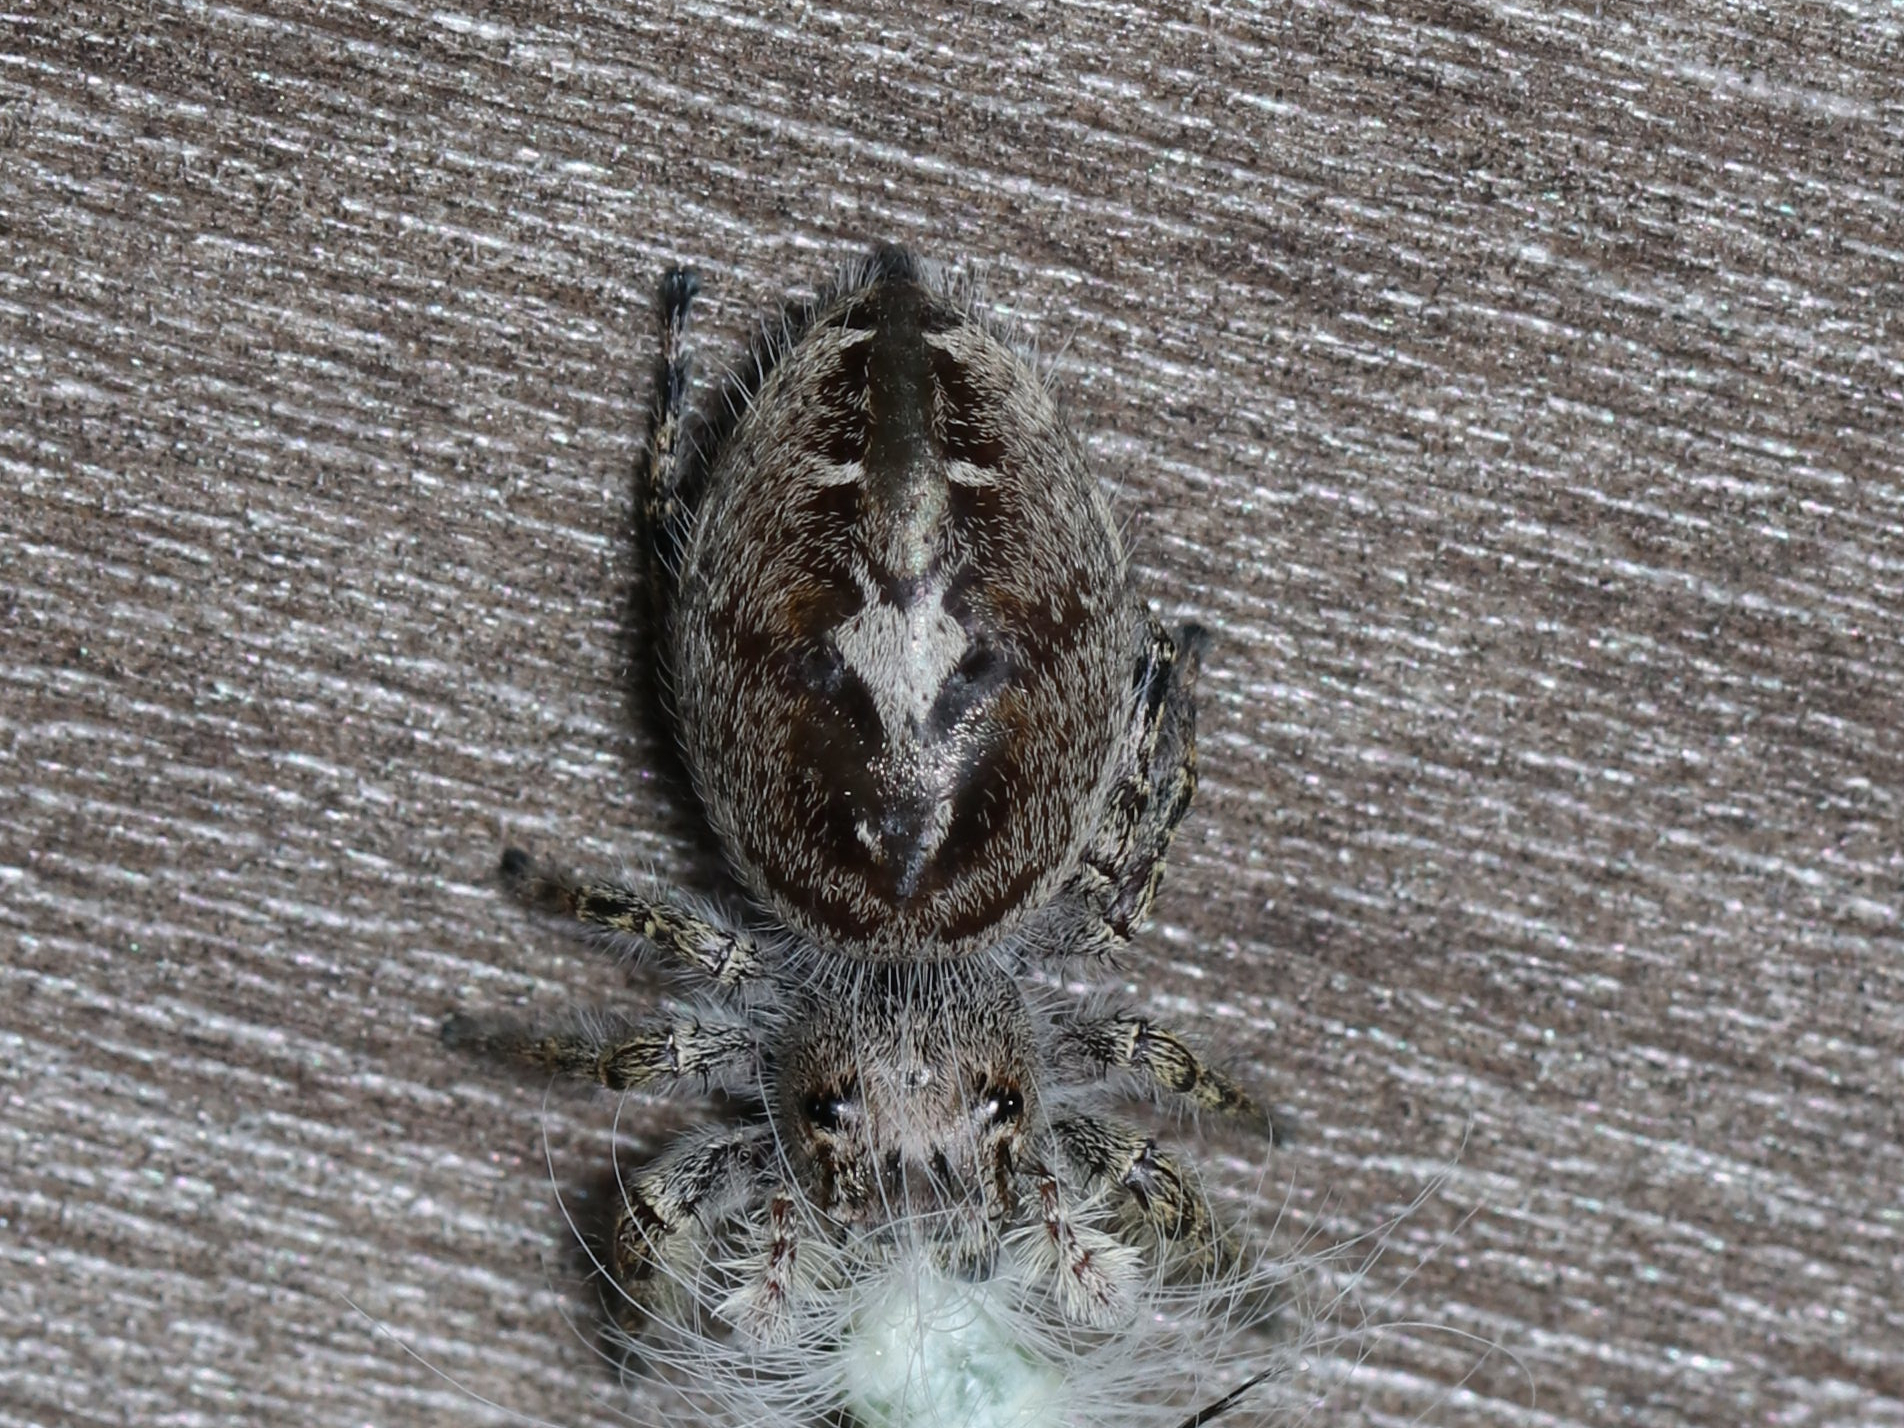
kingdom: Animalia
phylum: Arthropoda
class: Arachnida
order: Araneae
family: Salticidae
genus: Phidippus
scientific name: Phidippus putnami
